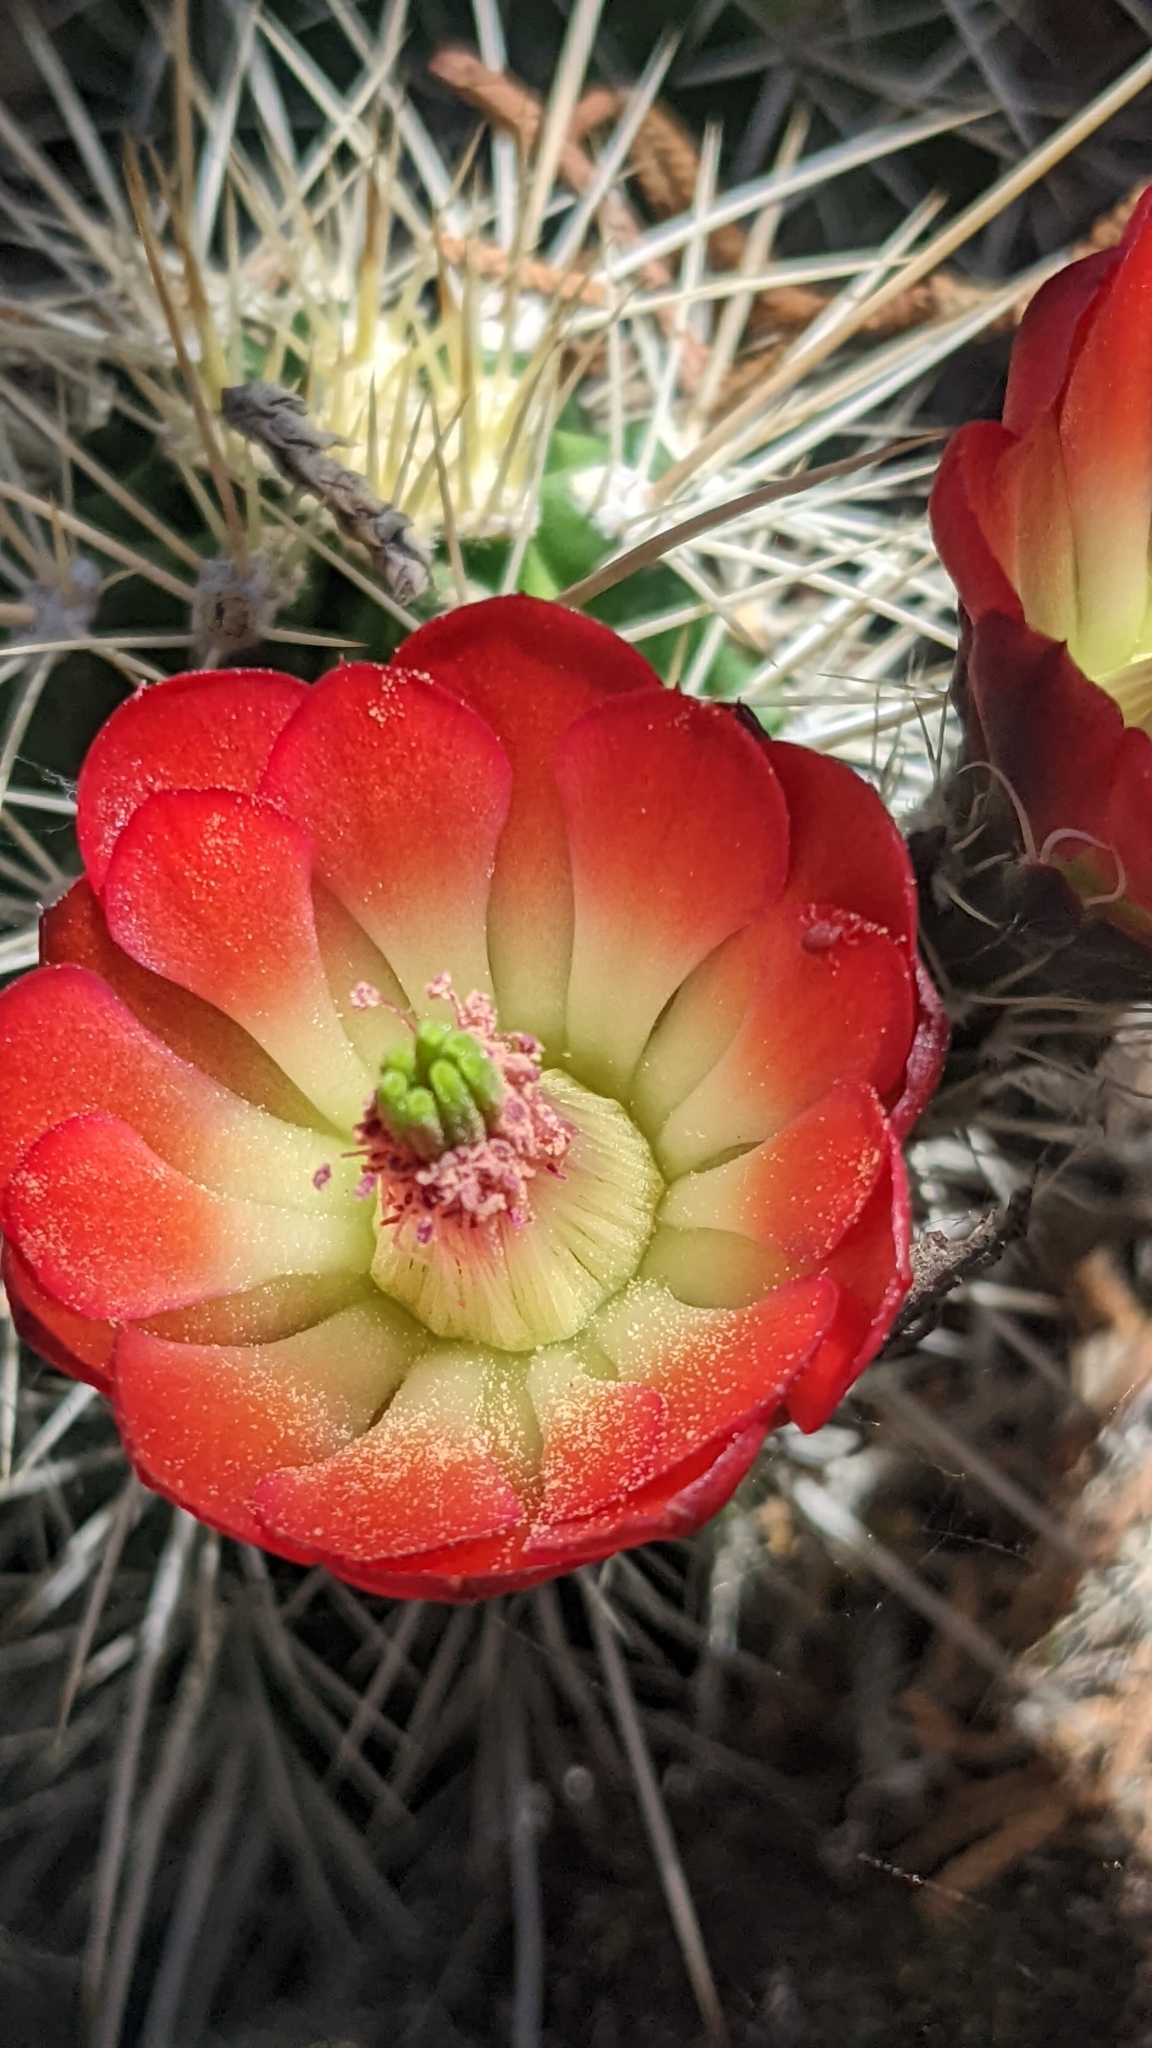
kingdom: Plantae
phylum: Tracheophyta
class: Magnoliopsida
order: Caryophyllales
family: Cactaceae
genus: Echinocereus
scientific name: Echinocereus bakeri
